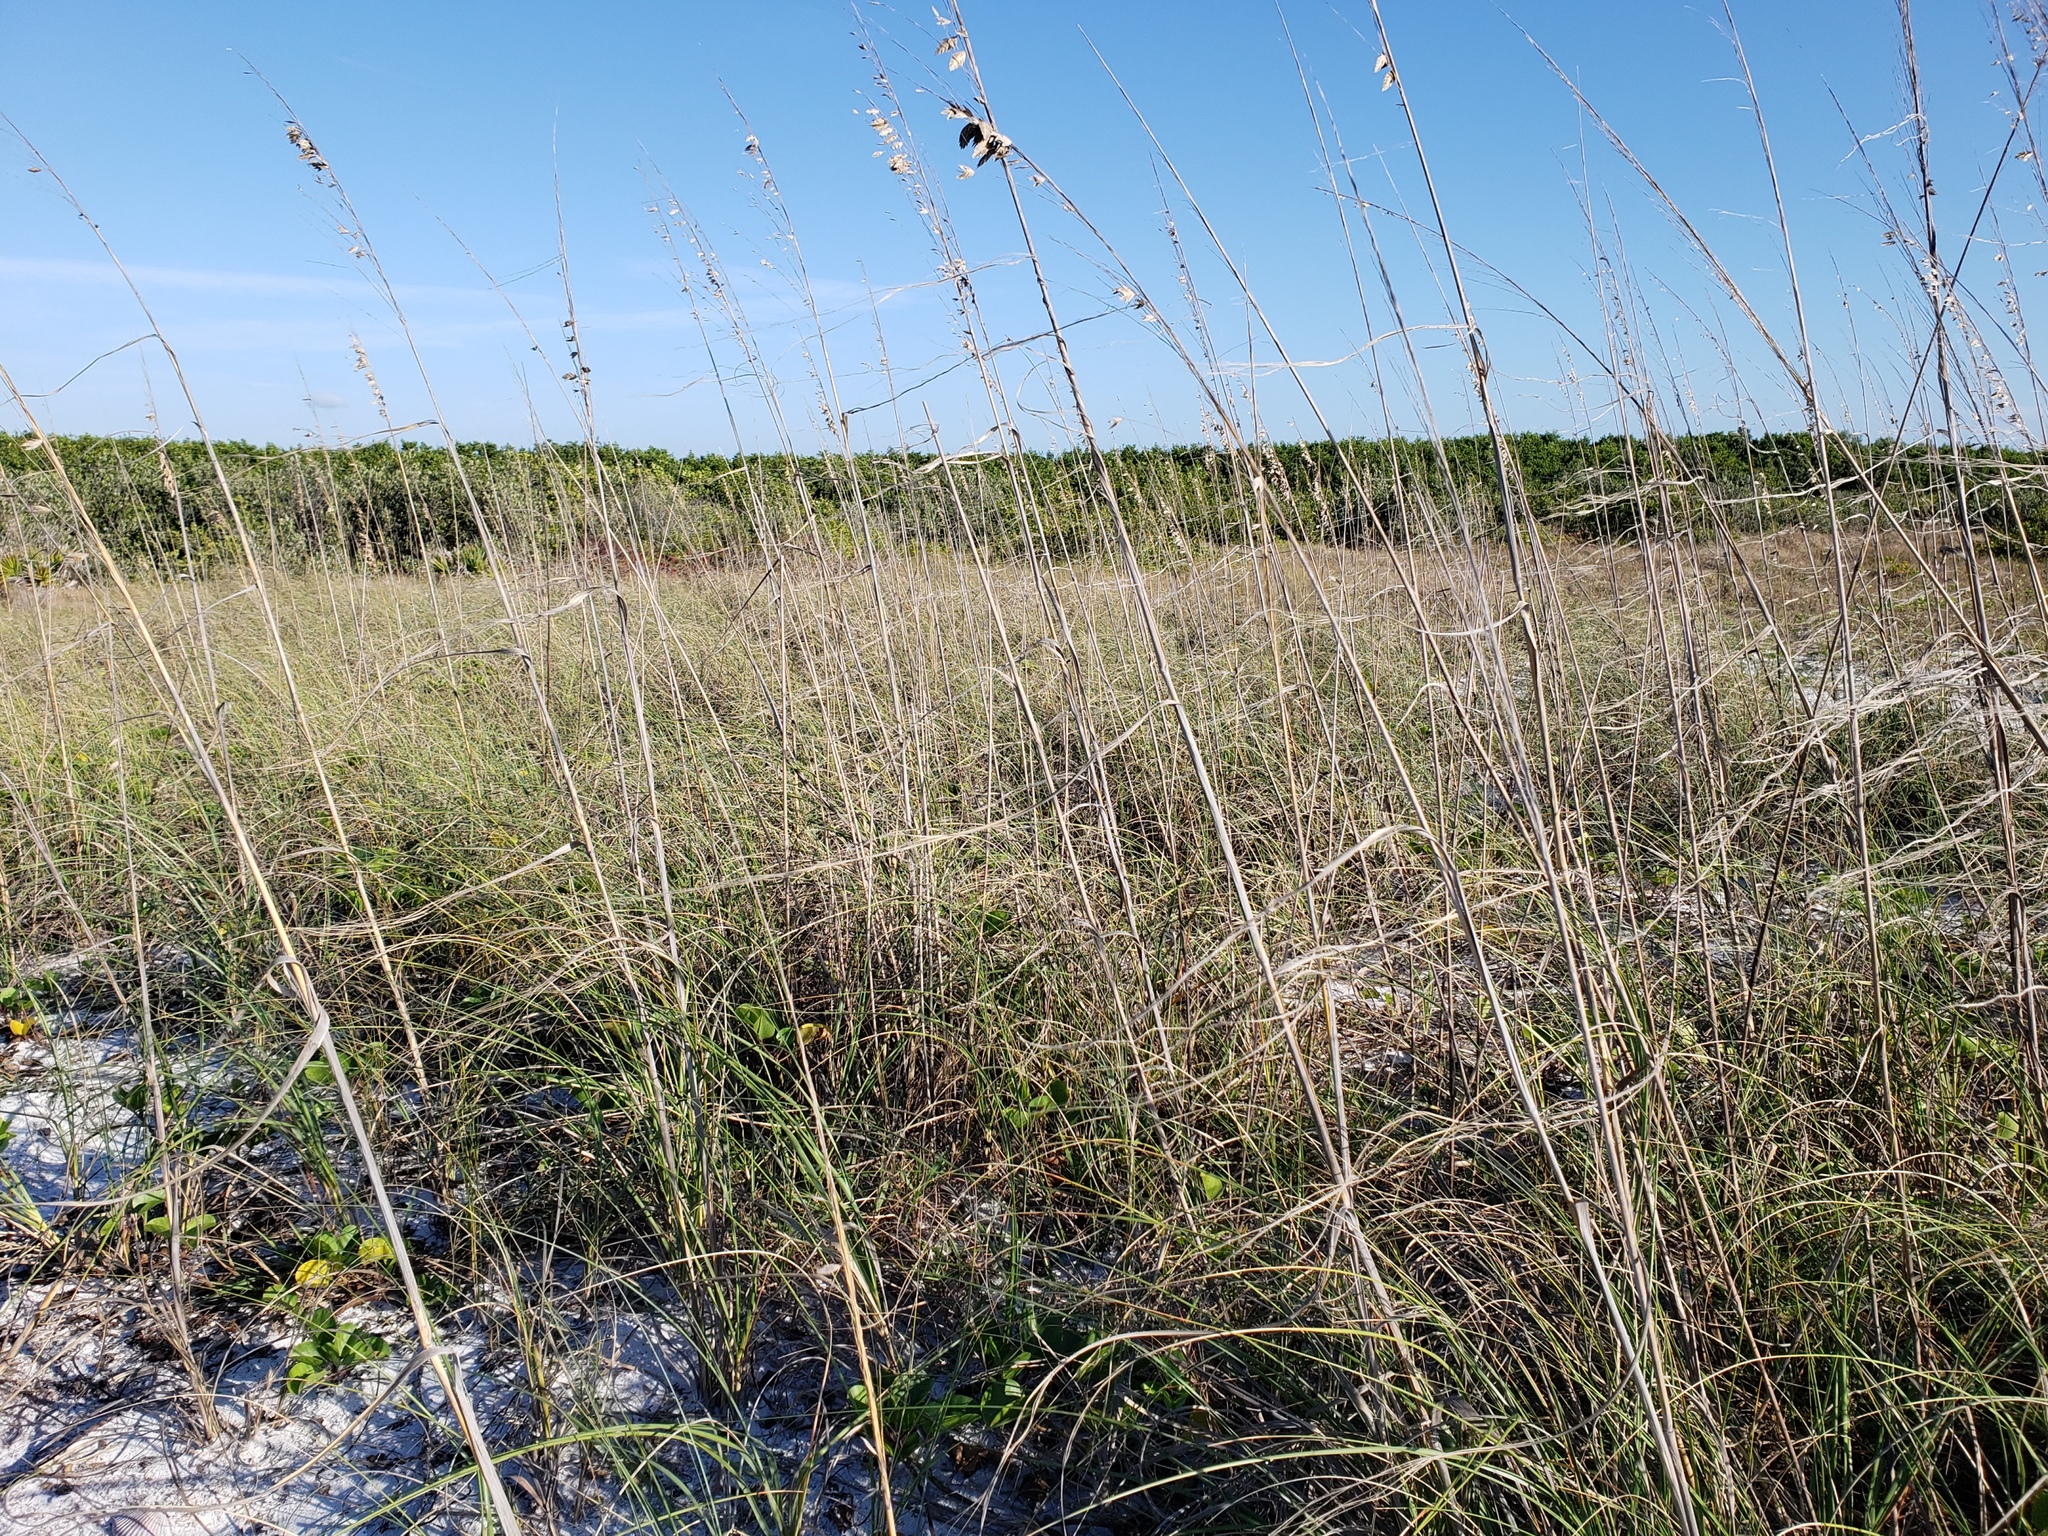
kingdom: Plantae
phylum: Tracheophyta
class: Liliopsida
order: Poales
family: Poaceae
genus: Uniola
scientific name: Uniola paniculata
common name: Seaside-oats
